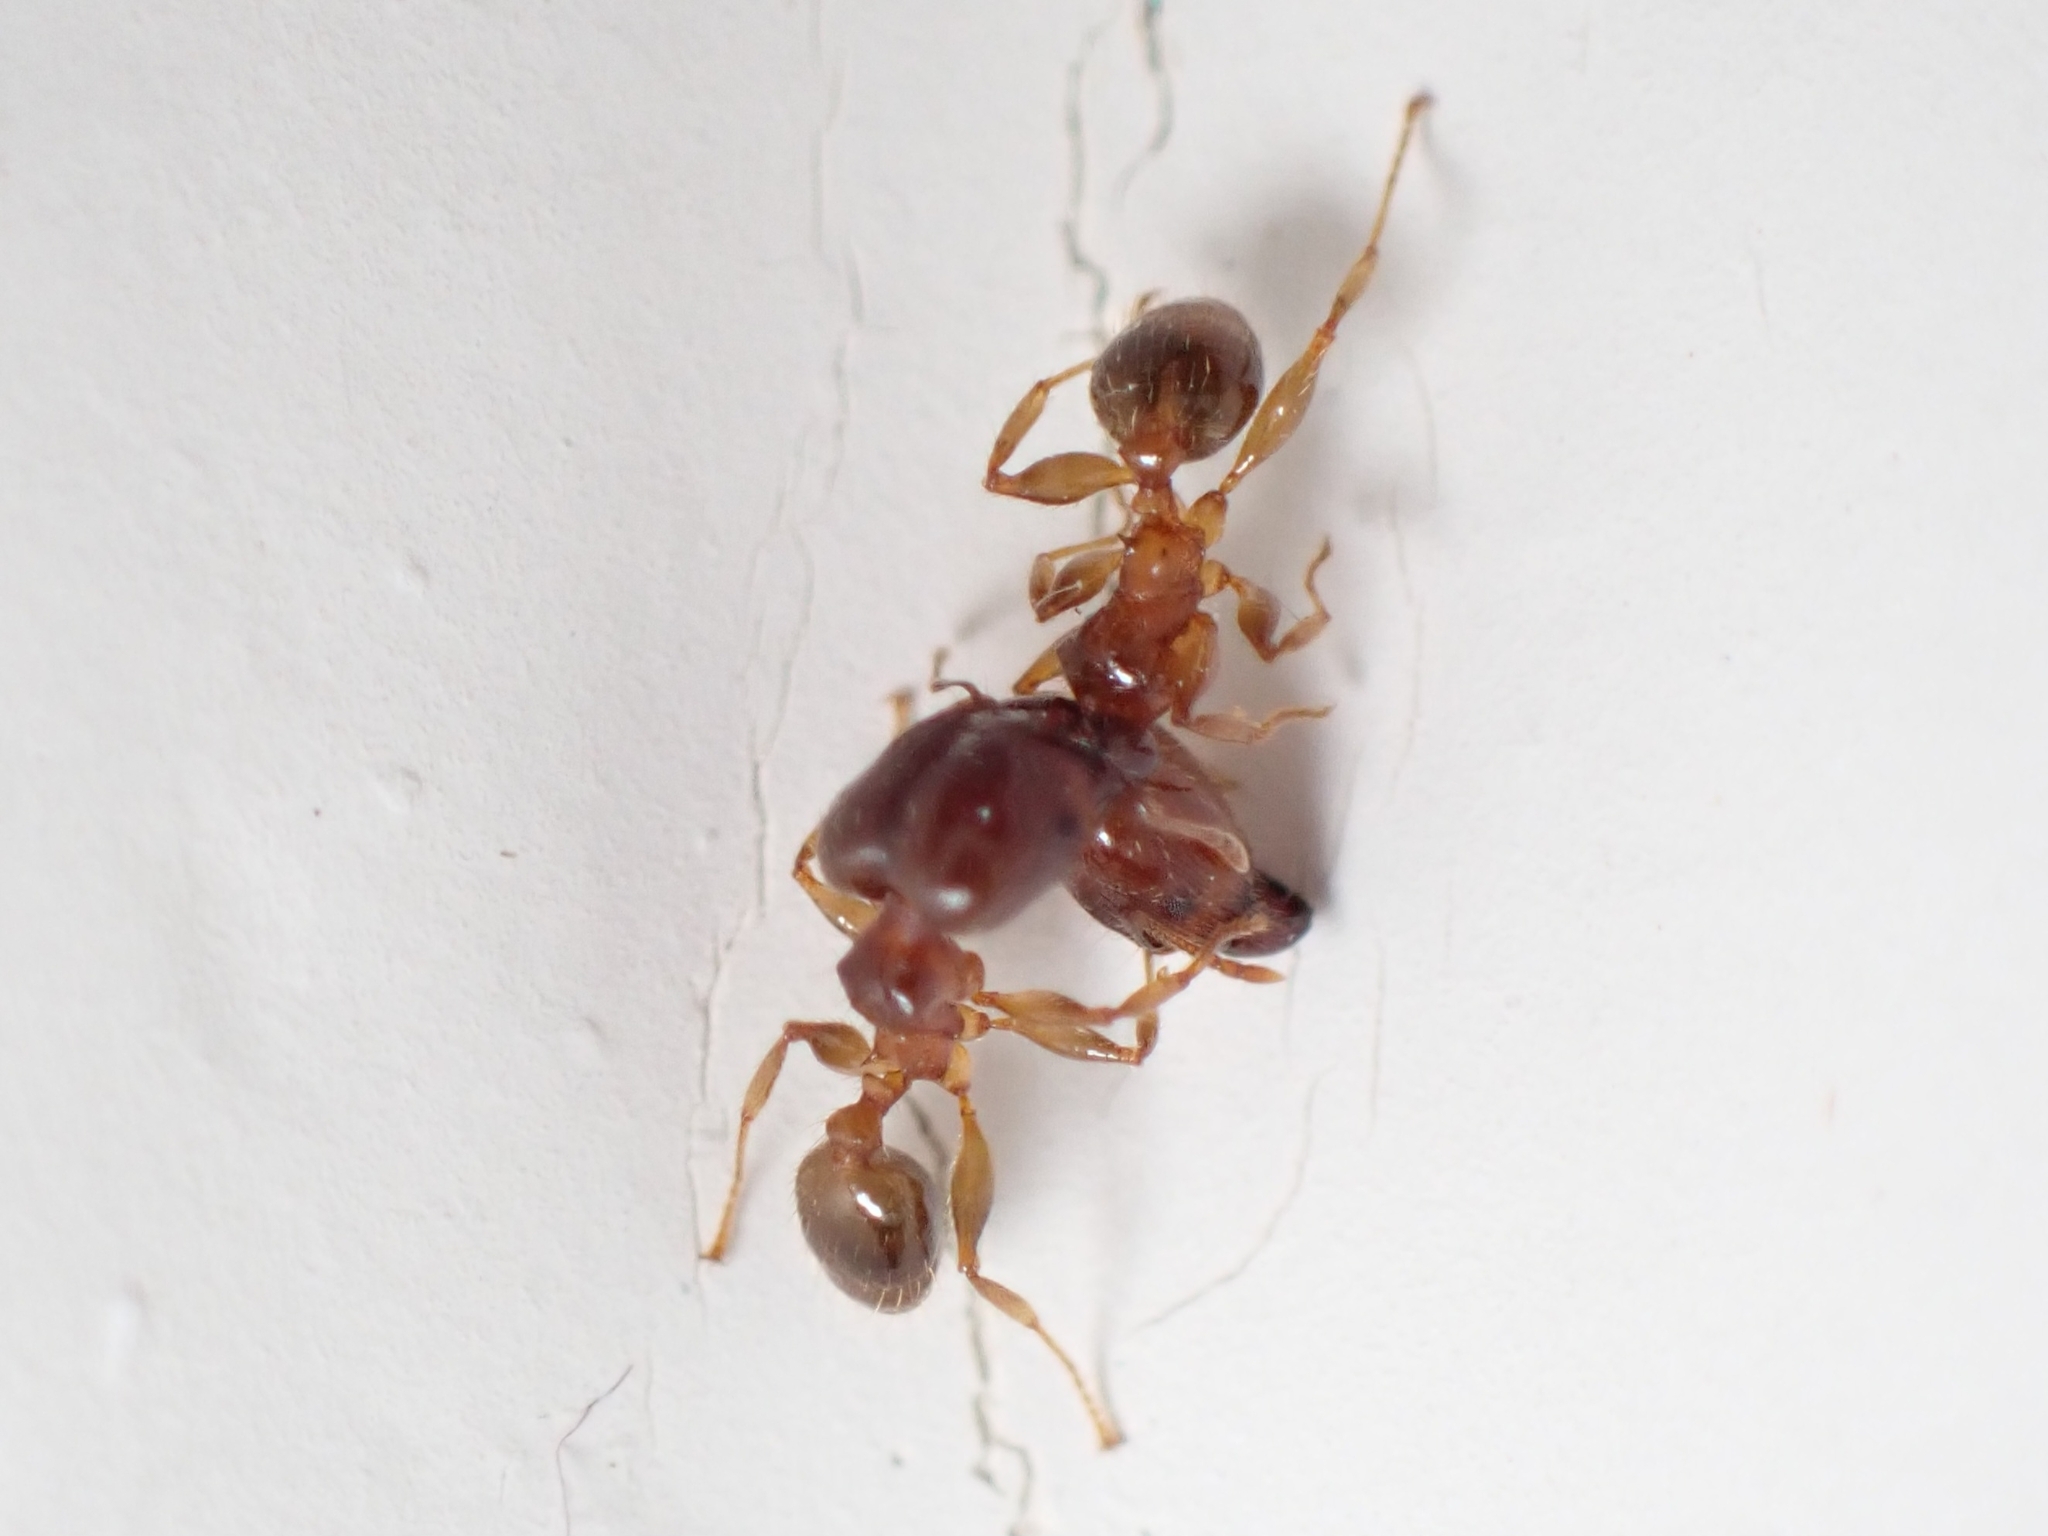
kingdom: Animalia
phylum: Arthropoda
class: Insecta
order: Hymenoptera
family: Formicidae
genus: Pheidole
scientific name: Pheidole megacephala
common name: Bigheaded ant
